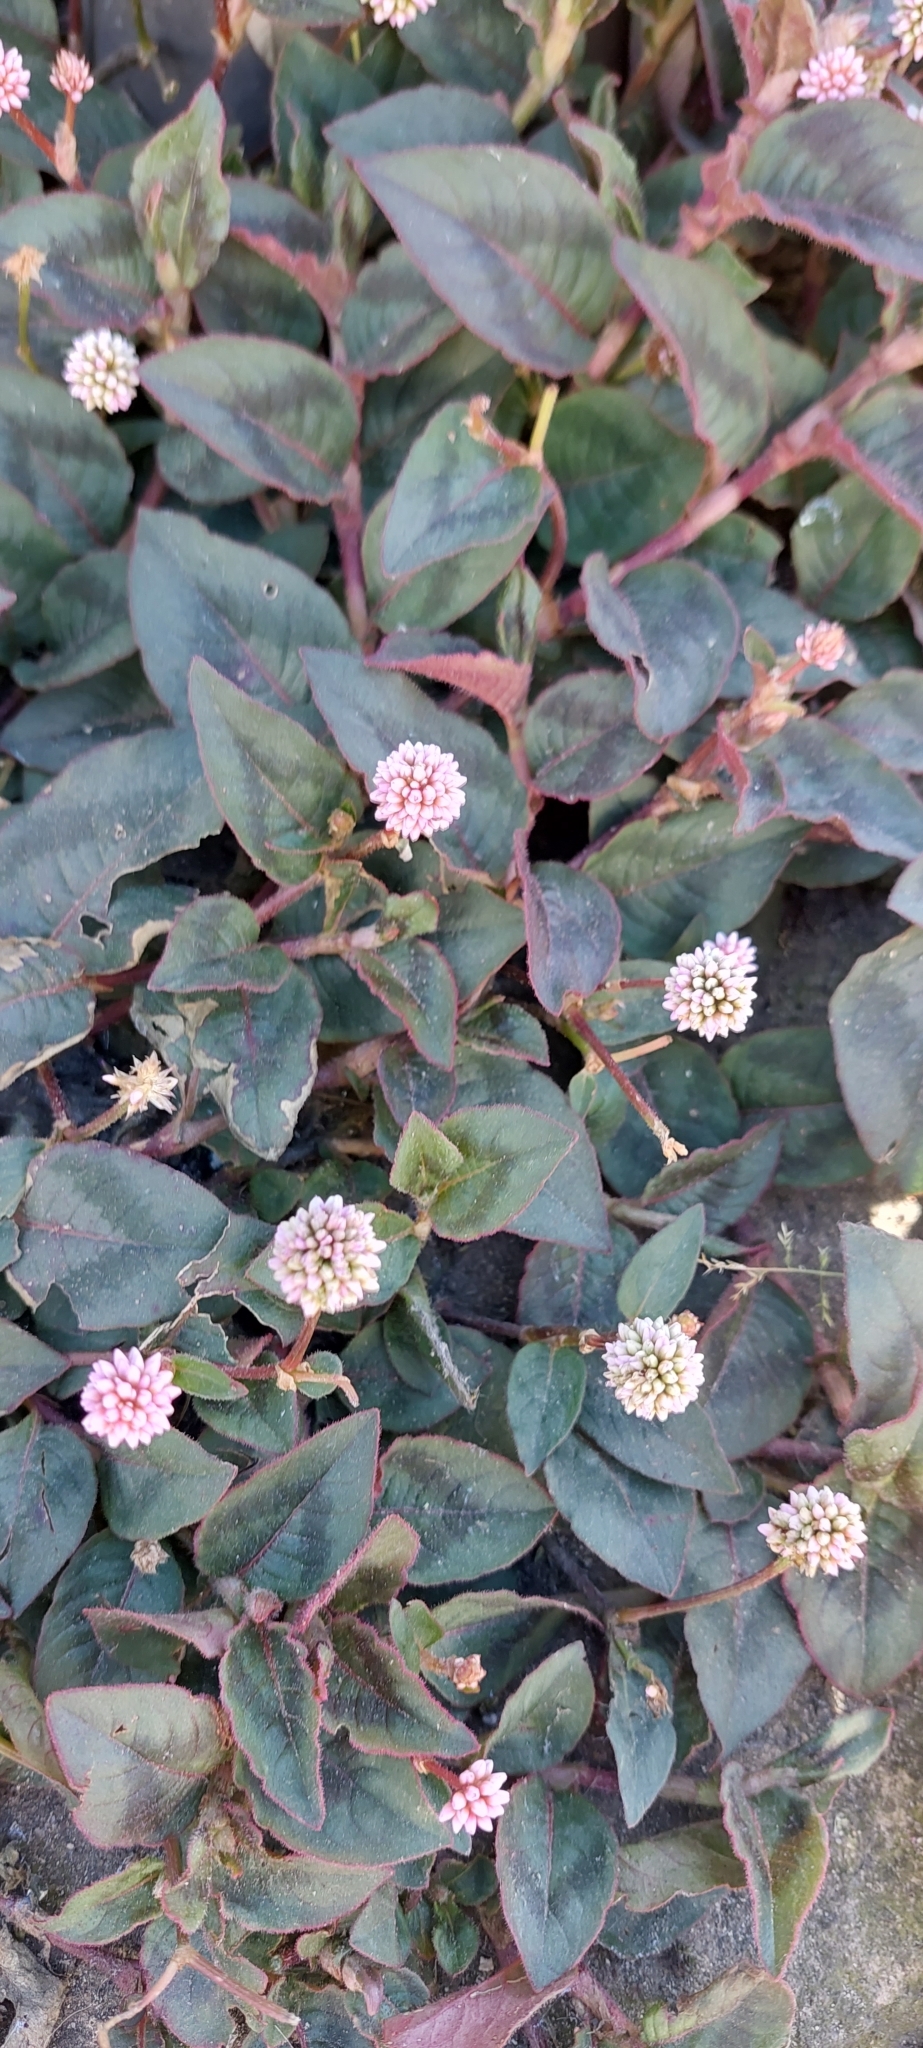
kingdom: Plantae
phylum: Tracheophyta
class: Magnoliopsida
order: Caryophyllales
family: Polygonaceae
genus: Persicaria
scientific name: Persicaria capitata
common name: Pinkhead smartweed
